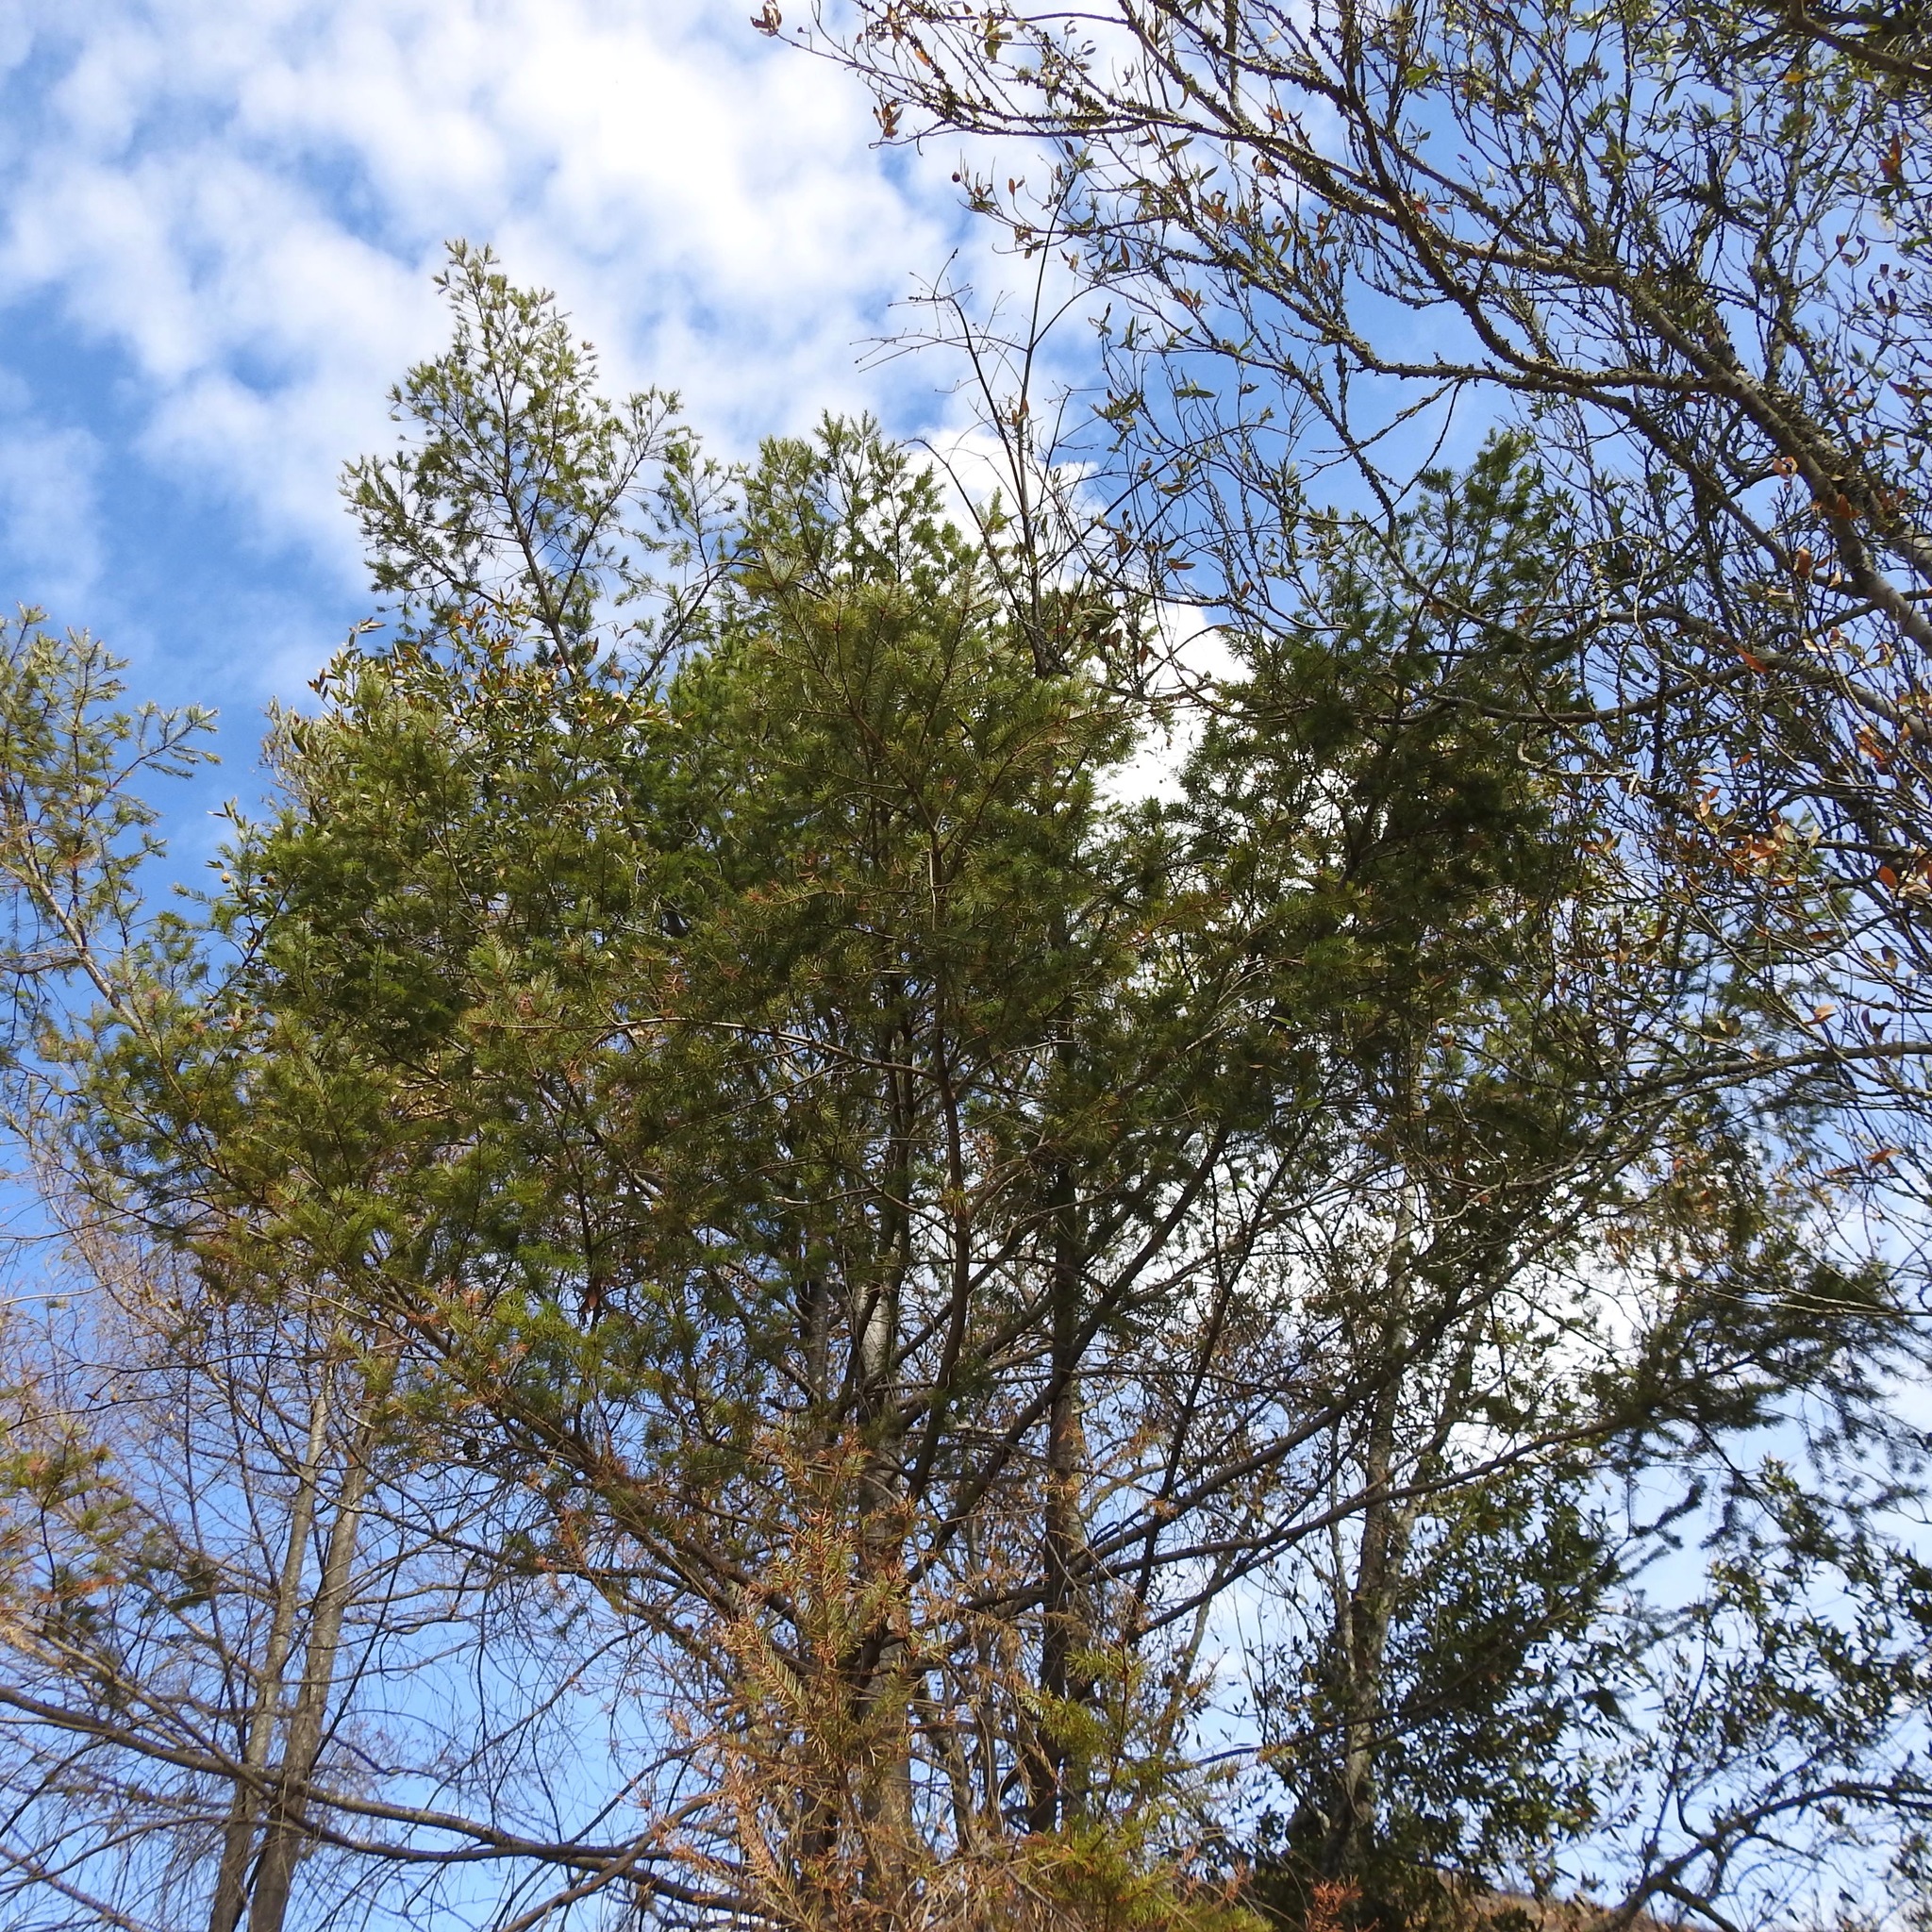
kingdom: Plantae
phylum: Tracheophyta
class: Pinopsida
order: Pinales
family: Pinaceae
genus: Pseudotsuga
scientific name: Pseudotsuga menziesii
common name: Douglas fir
